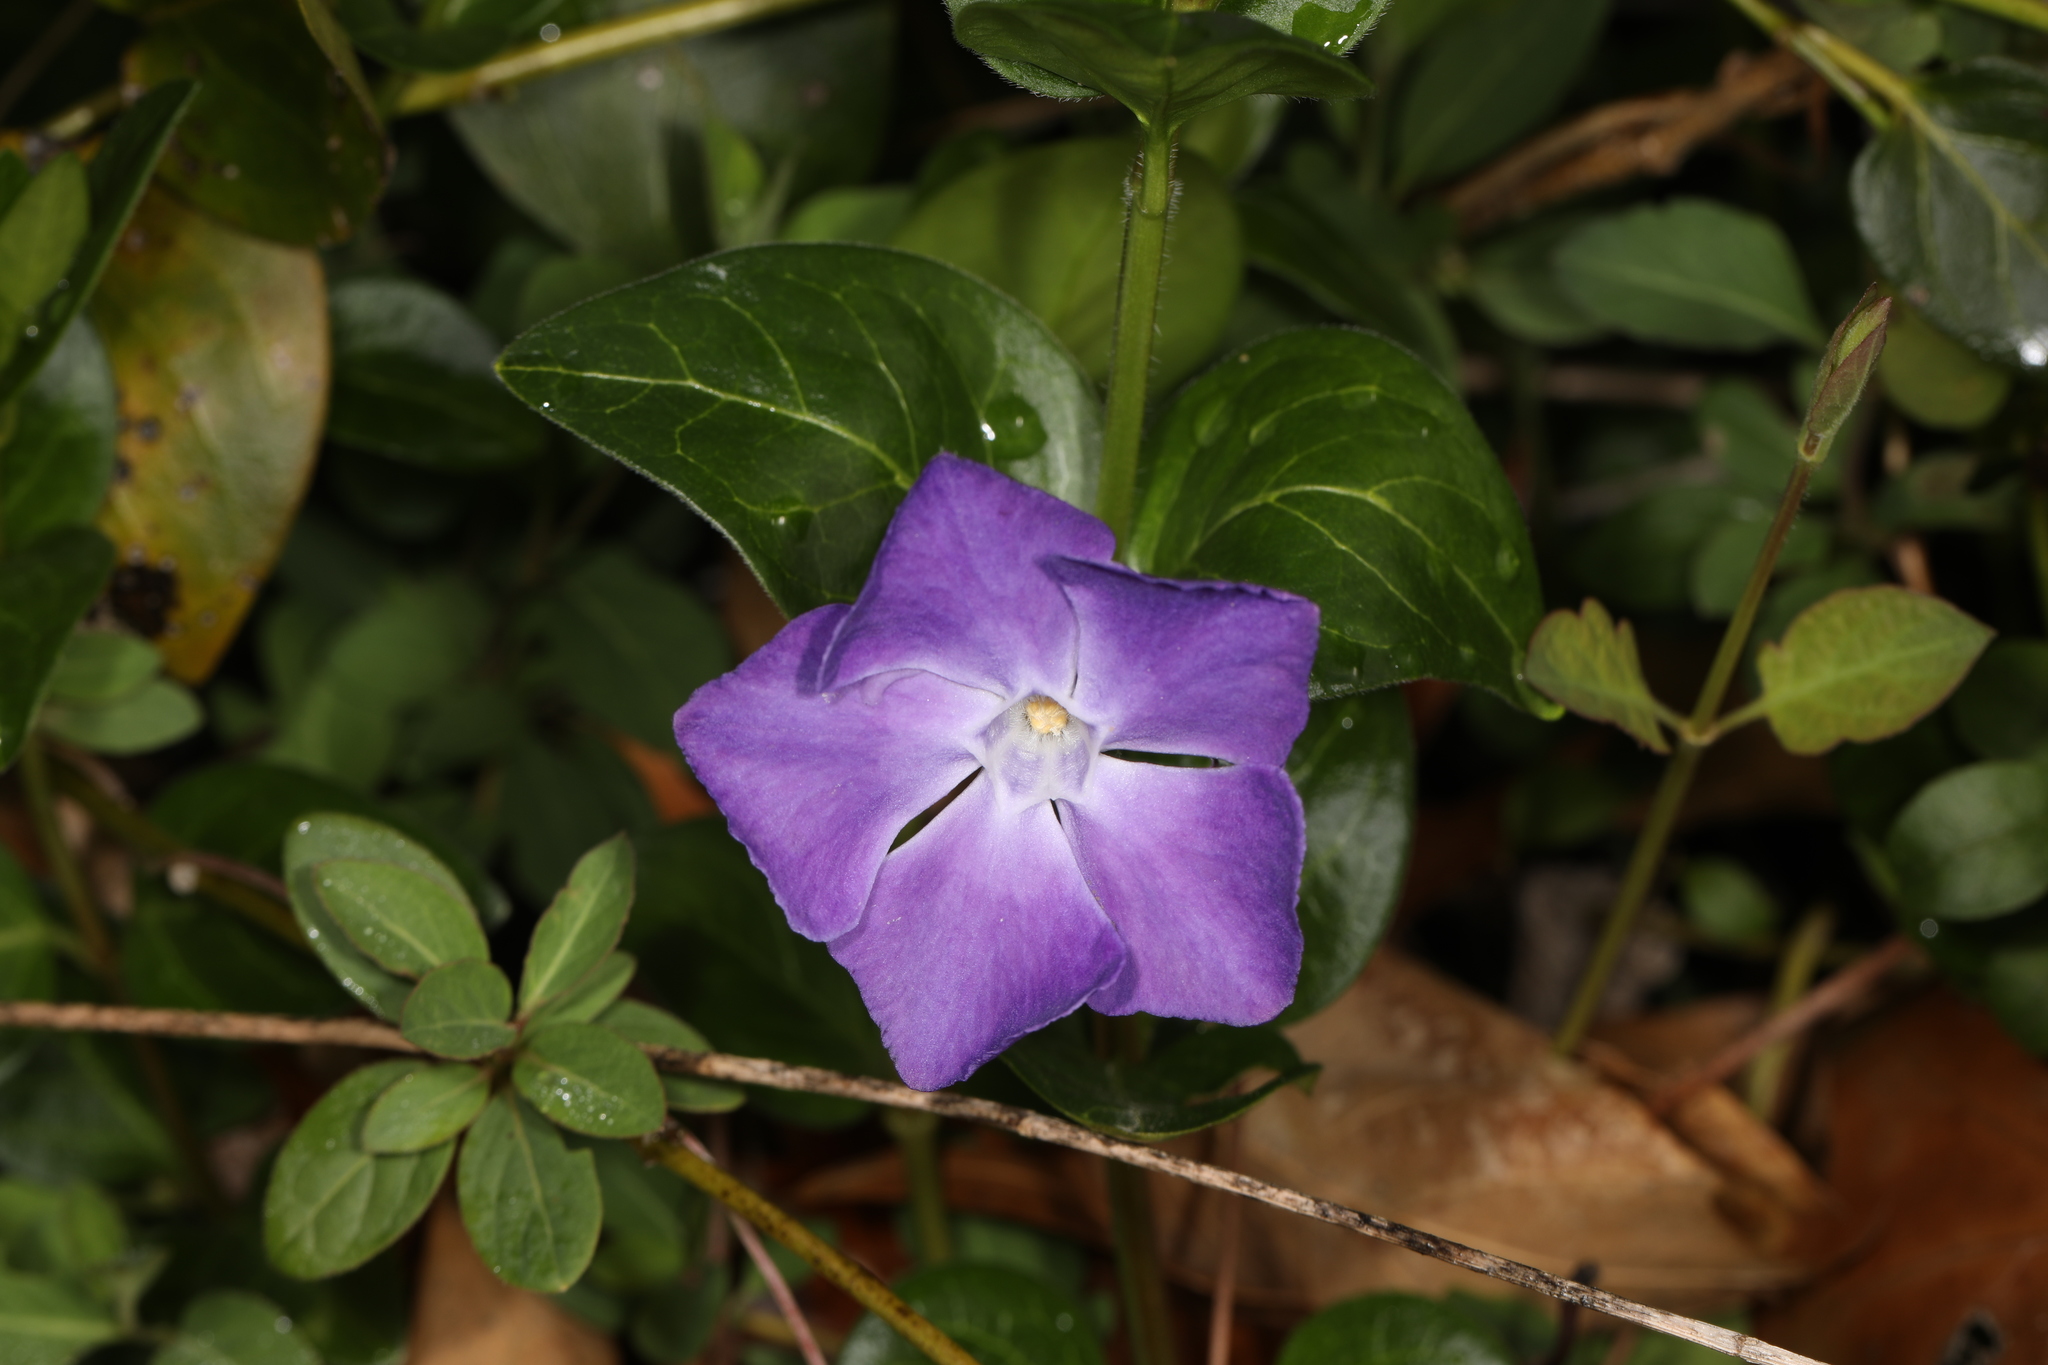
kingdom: Plantae
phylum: Tracheophyta
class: Magnoliopsida
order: Gentianales
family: Apocynaceae
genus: Vinca
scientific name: Vinca major
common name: Greater periwinkle
